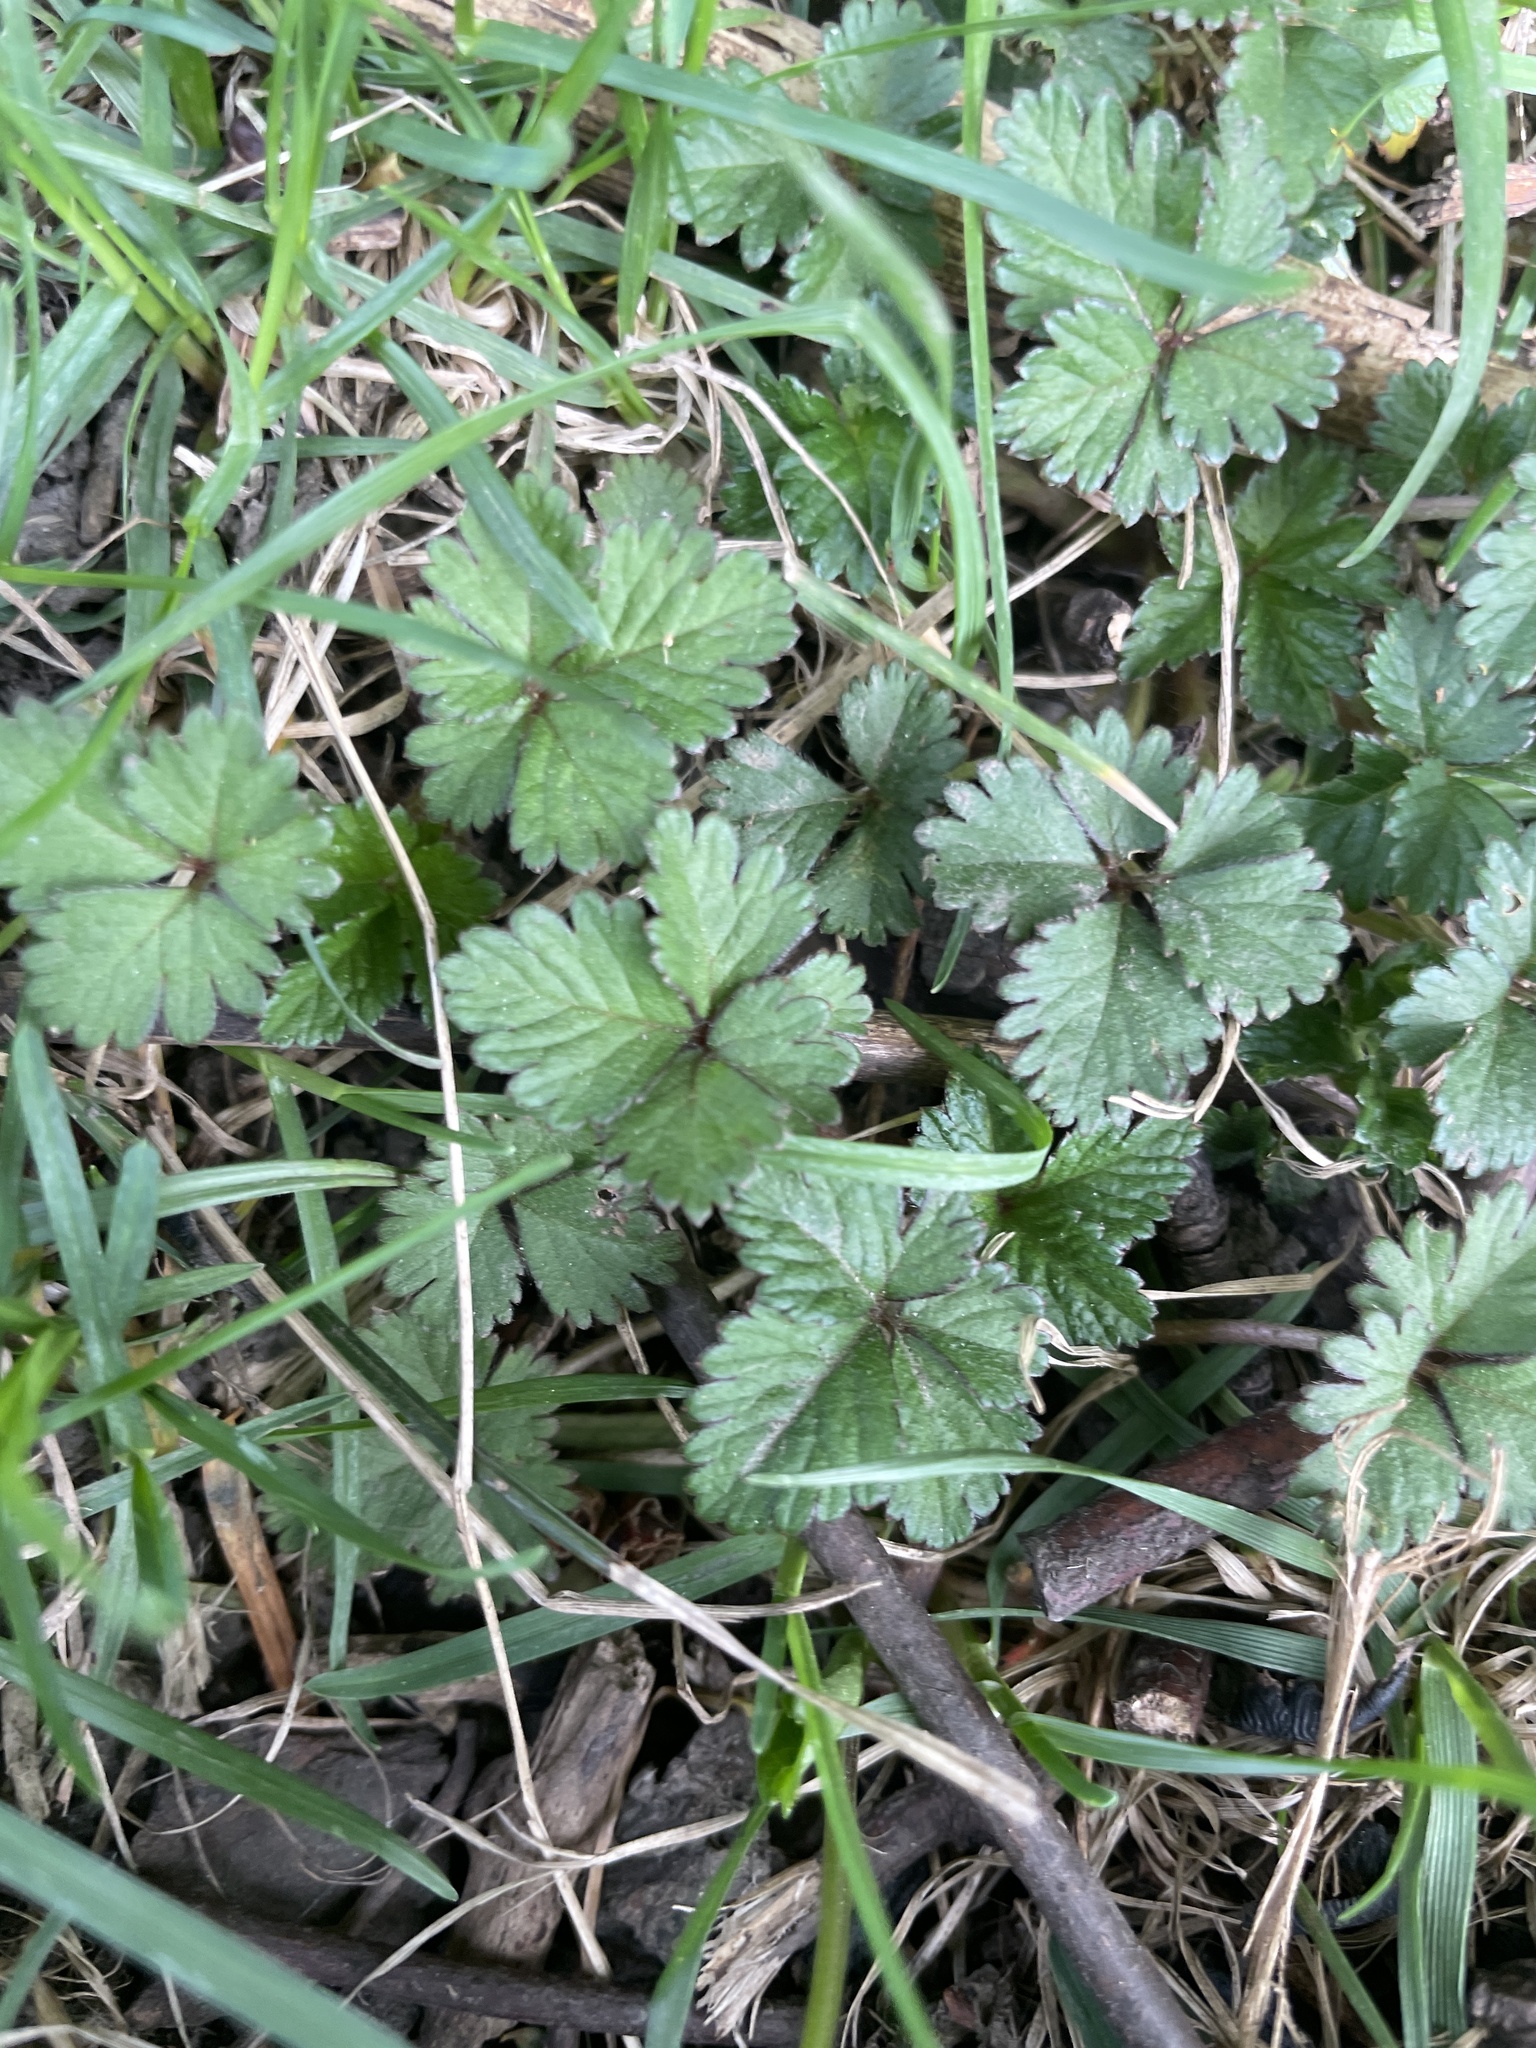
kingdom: Plantae
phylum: Tracheophyta
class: Magnoliopsida
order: Rosales
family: Rosaceae
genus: Potentilla
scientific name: Potentilla indica
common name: Yellow-flowered strawberry
